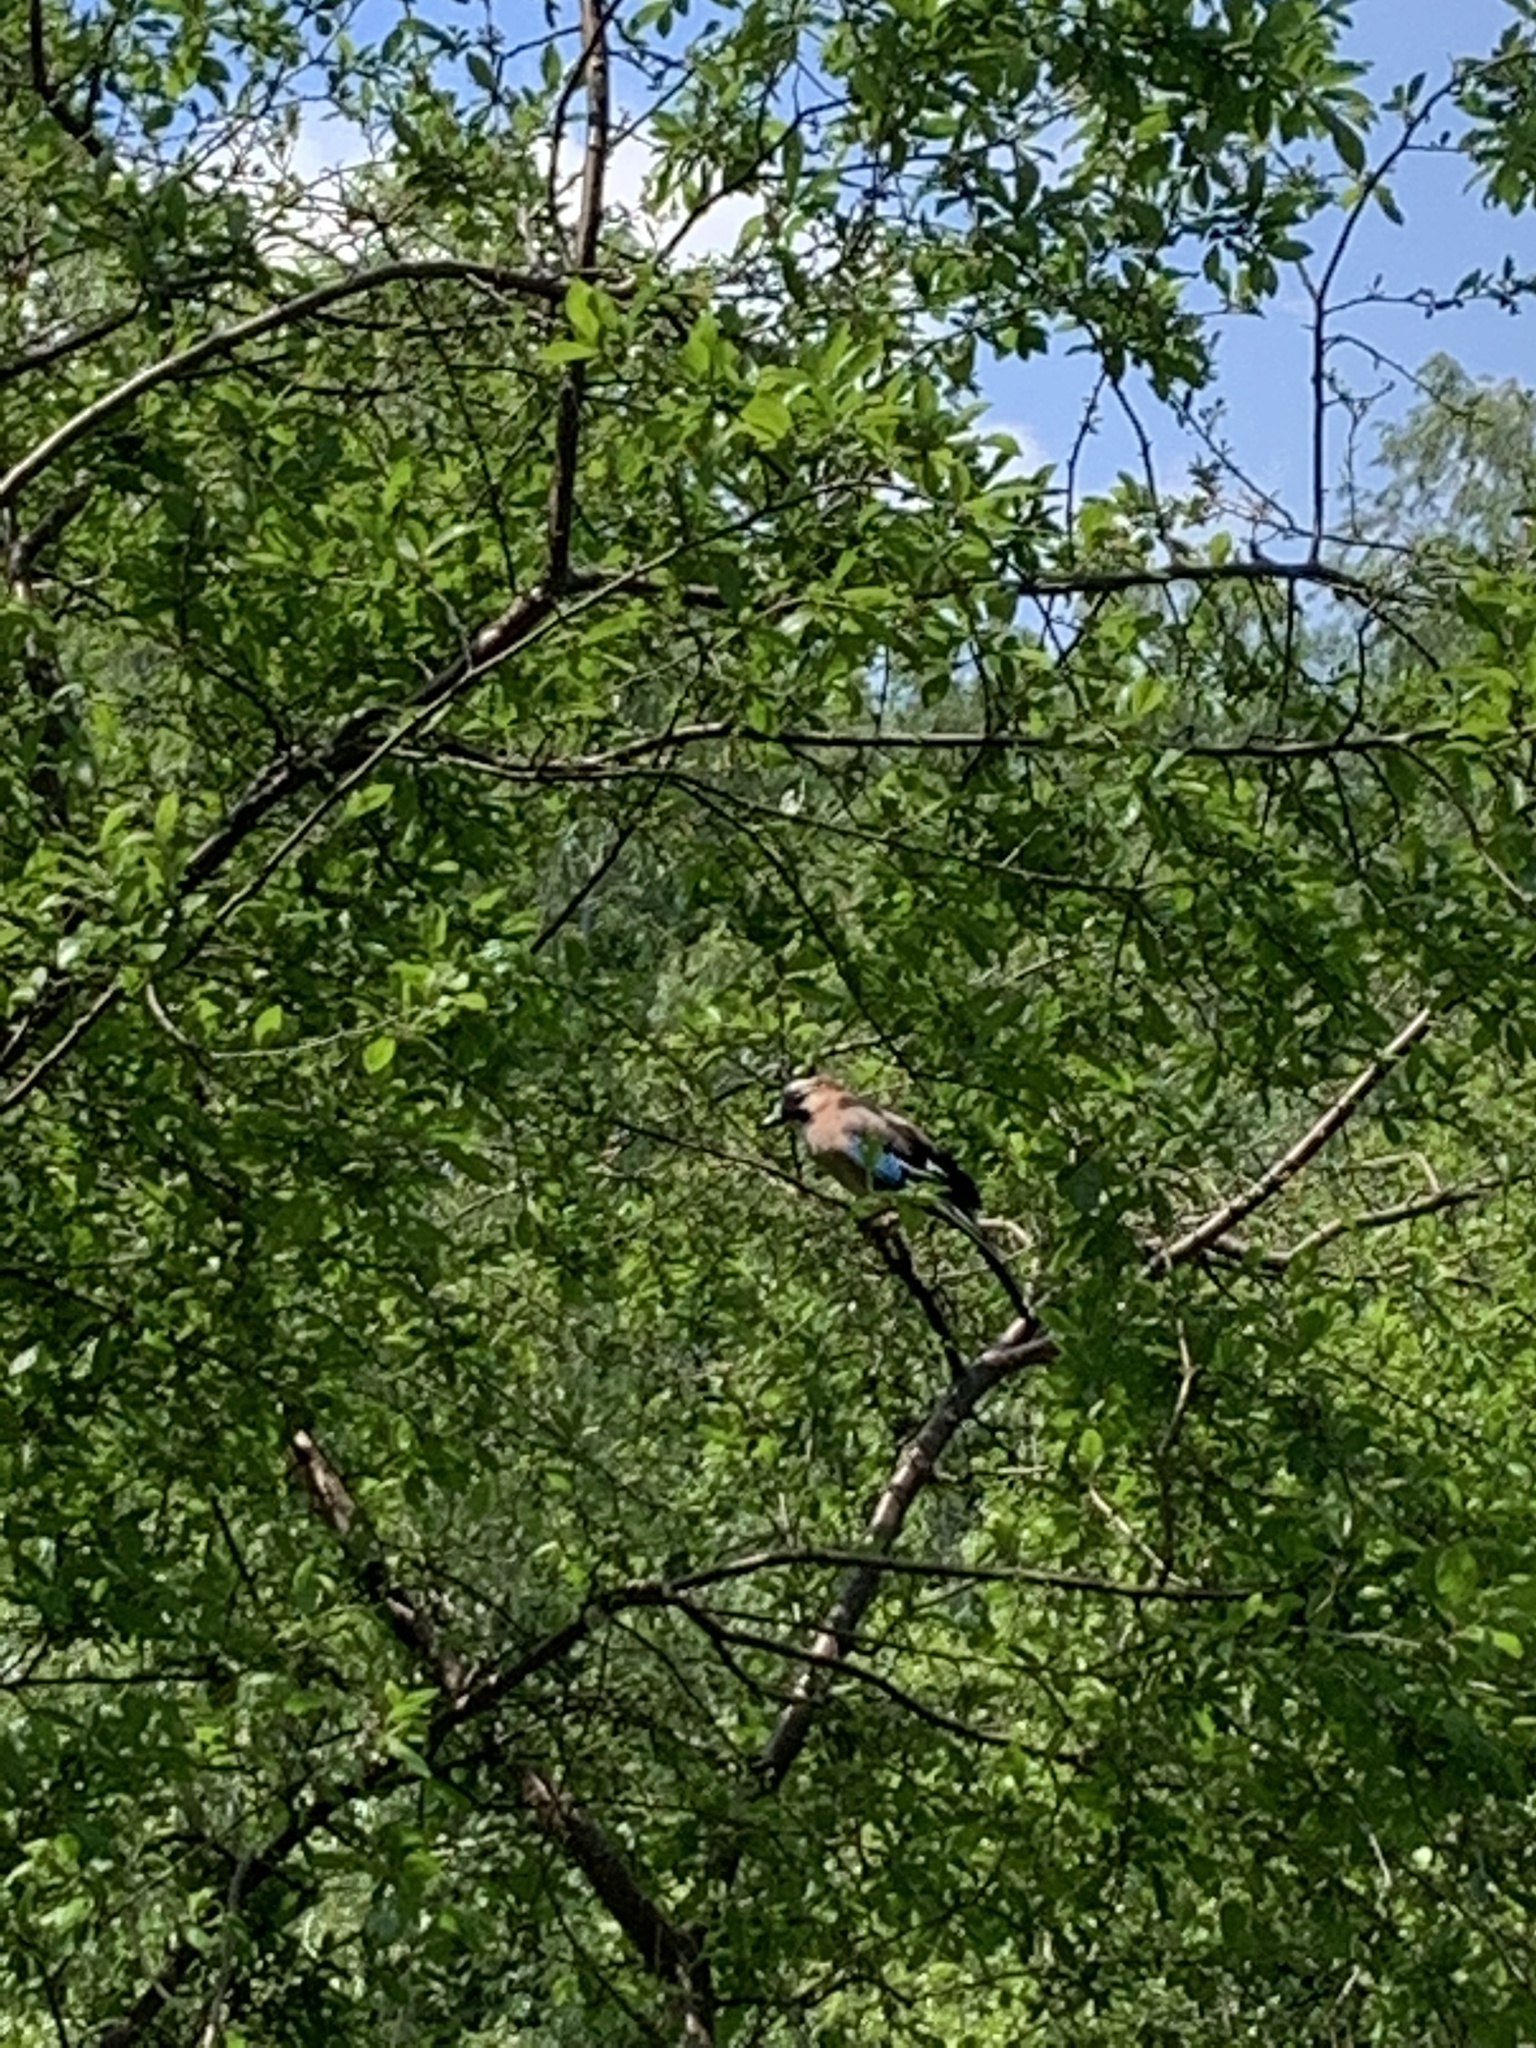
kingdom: Animalia
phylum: Chordata
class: Aves
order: Passeriformes
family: Corvidae
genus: Garrulus
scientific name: Garrulus glandarius
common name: Eurasian jay
